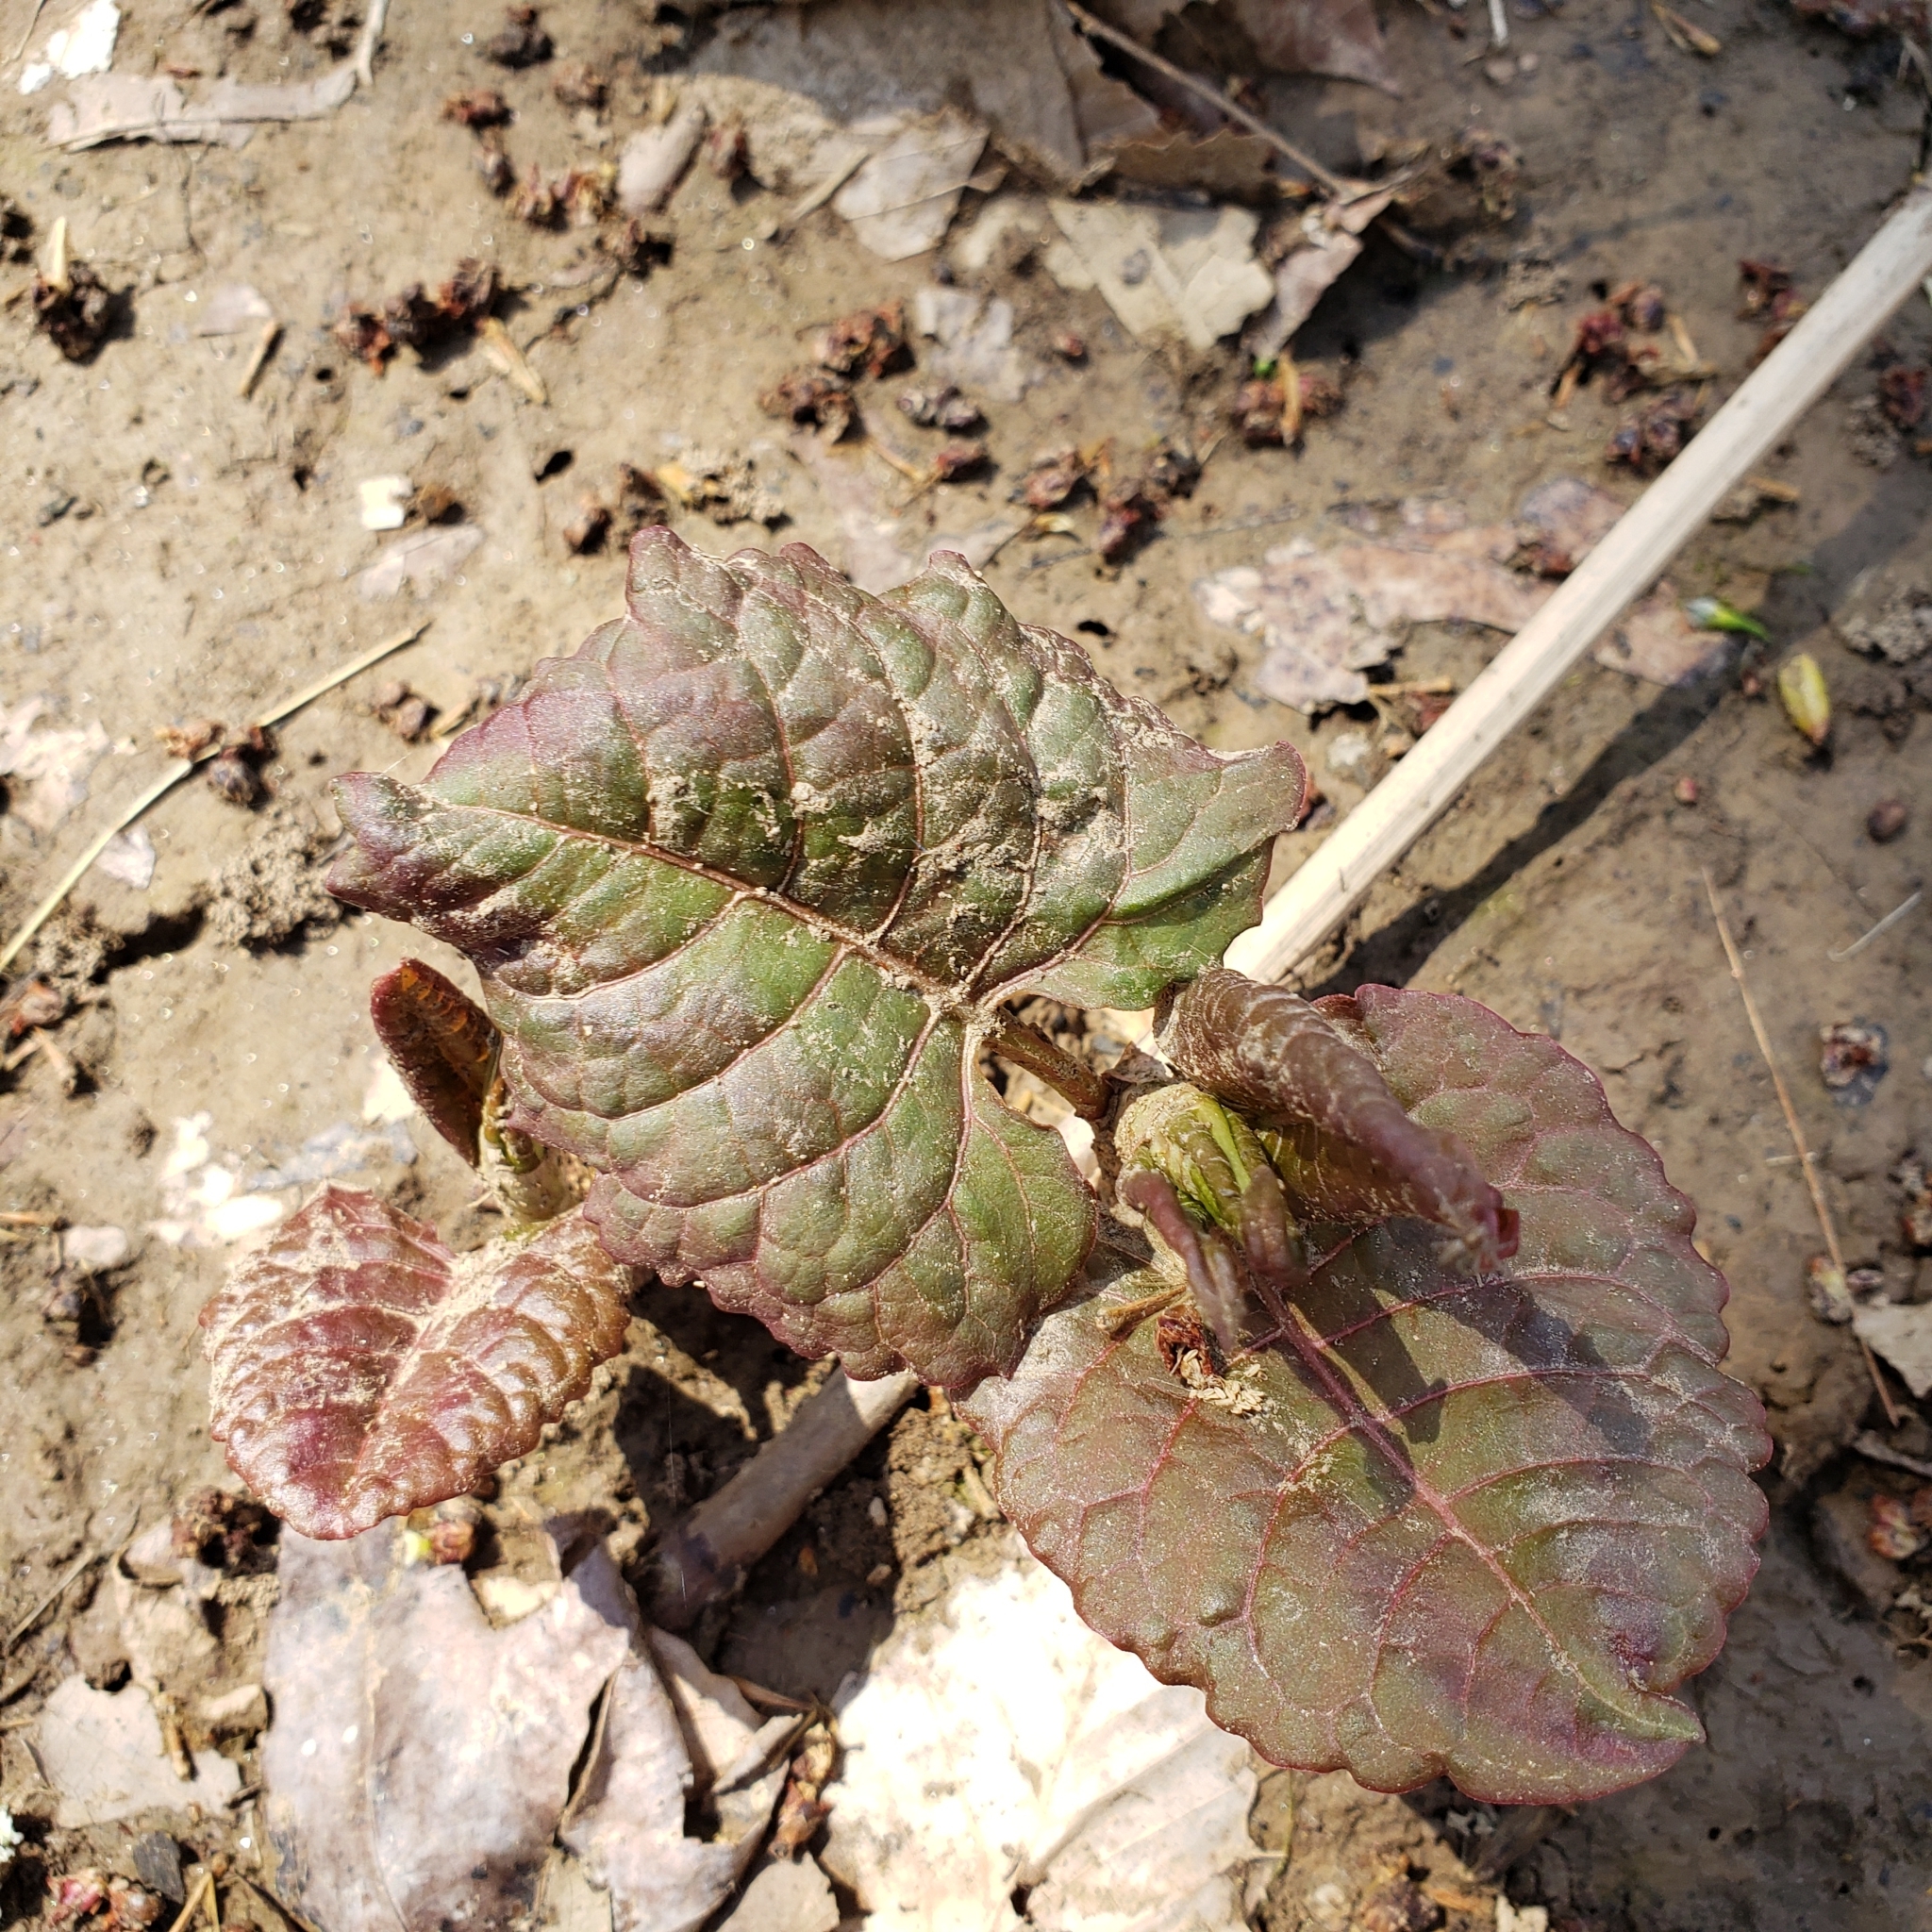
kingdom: Plantae
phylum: Tracheophyta
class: Magnoliopsida
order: Caryophyllales
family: Polygonaceae
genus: Reynoutria
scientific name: Reynoutria japonica
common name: Japanese knotweed
